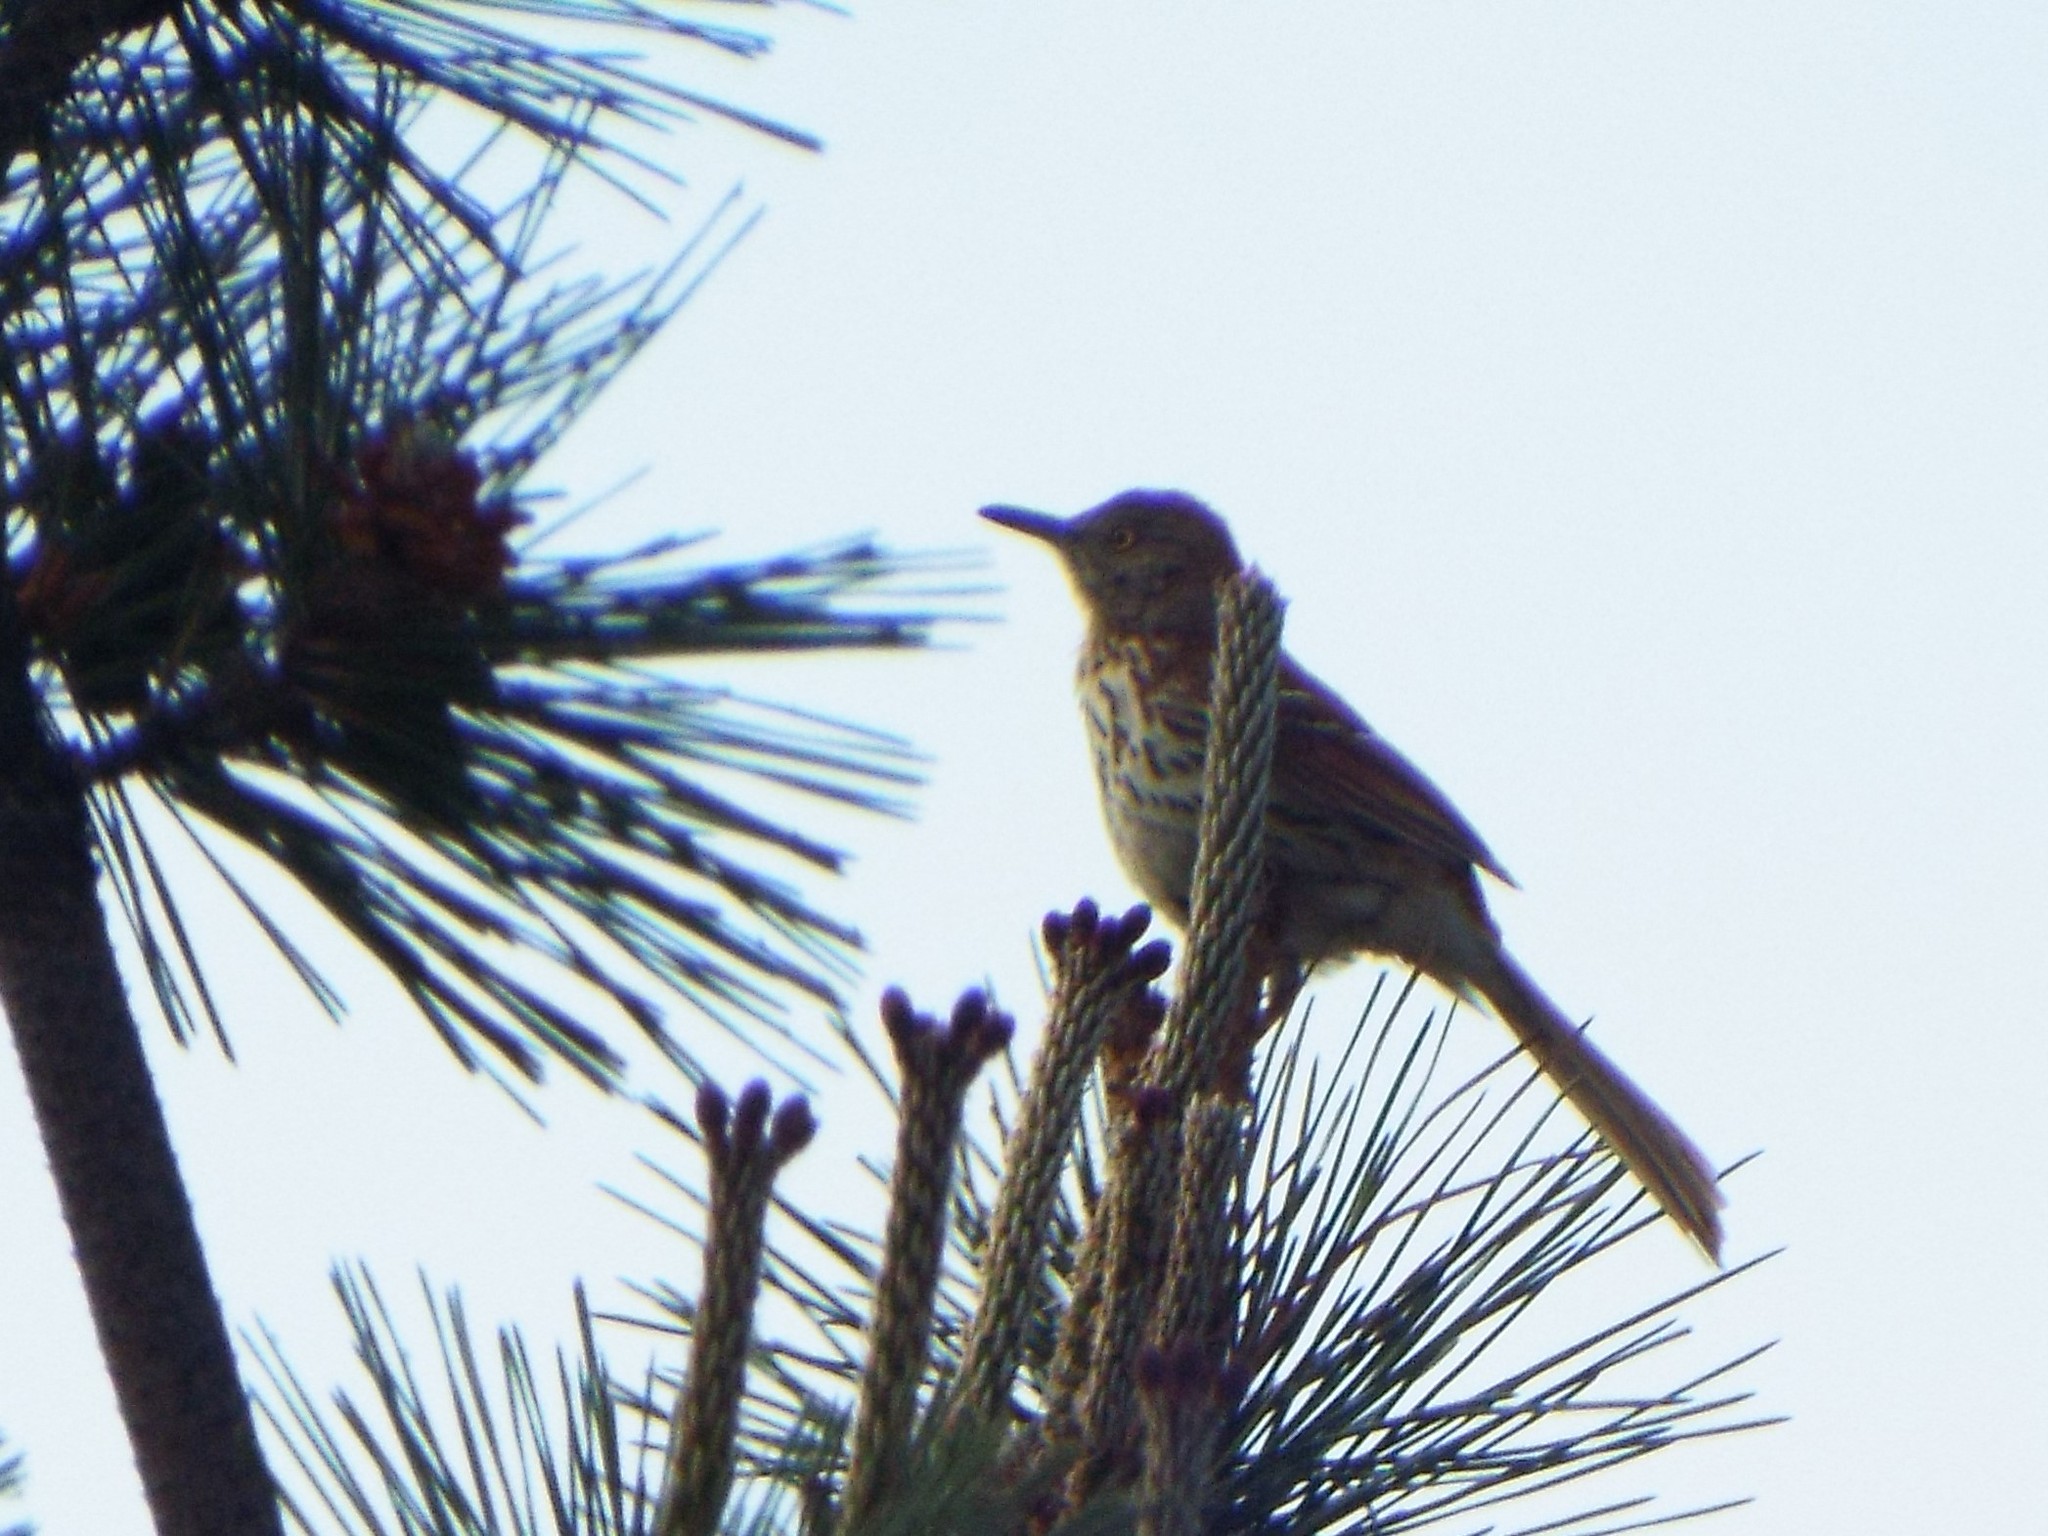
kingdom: Animalia
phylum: Chordata
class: Aves
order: Passeriformes
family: Mimidae
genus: Toxostoma
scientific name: Toxostoma rufum
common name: Brown thrasher
